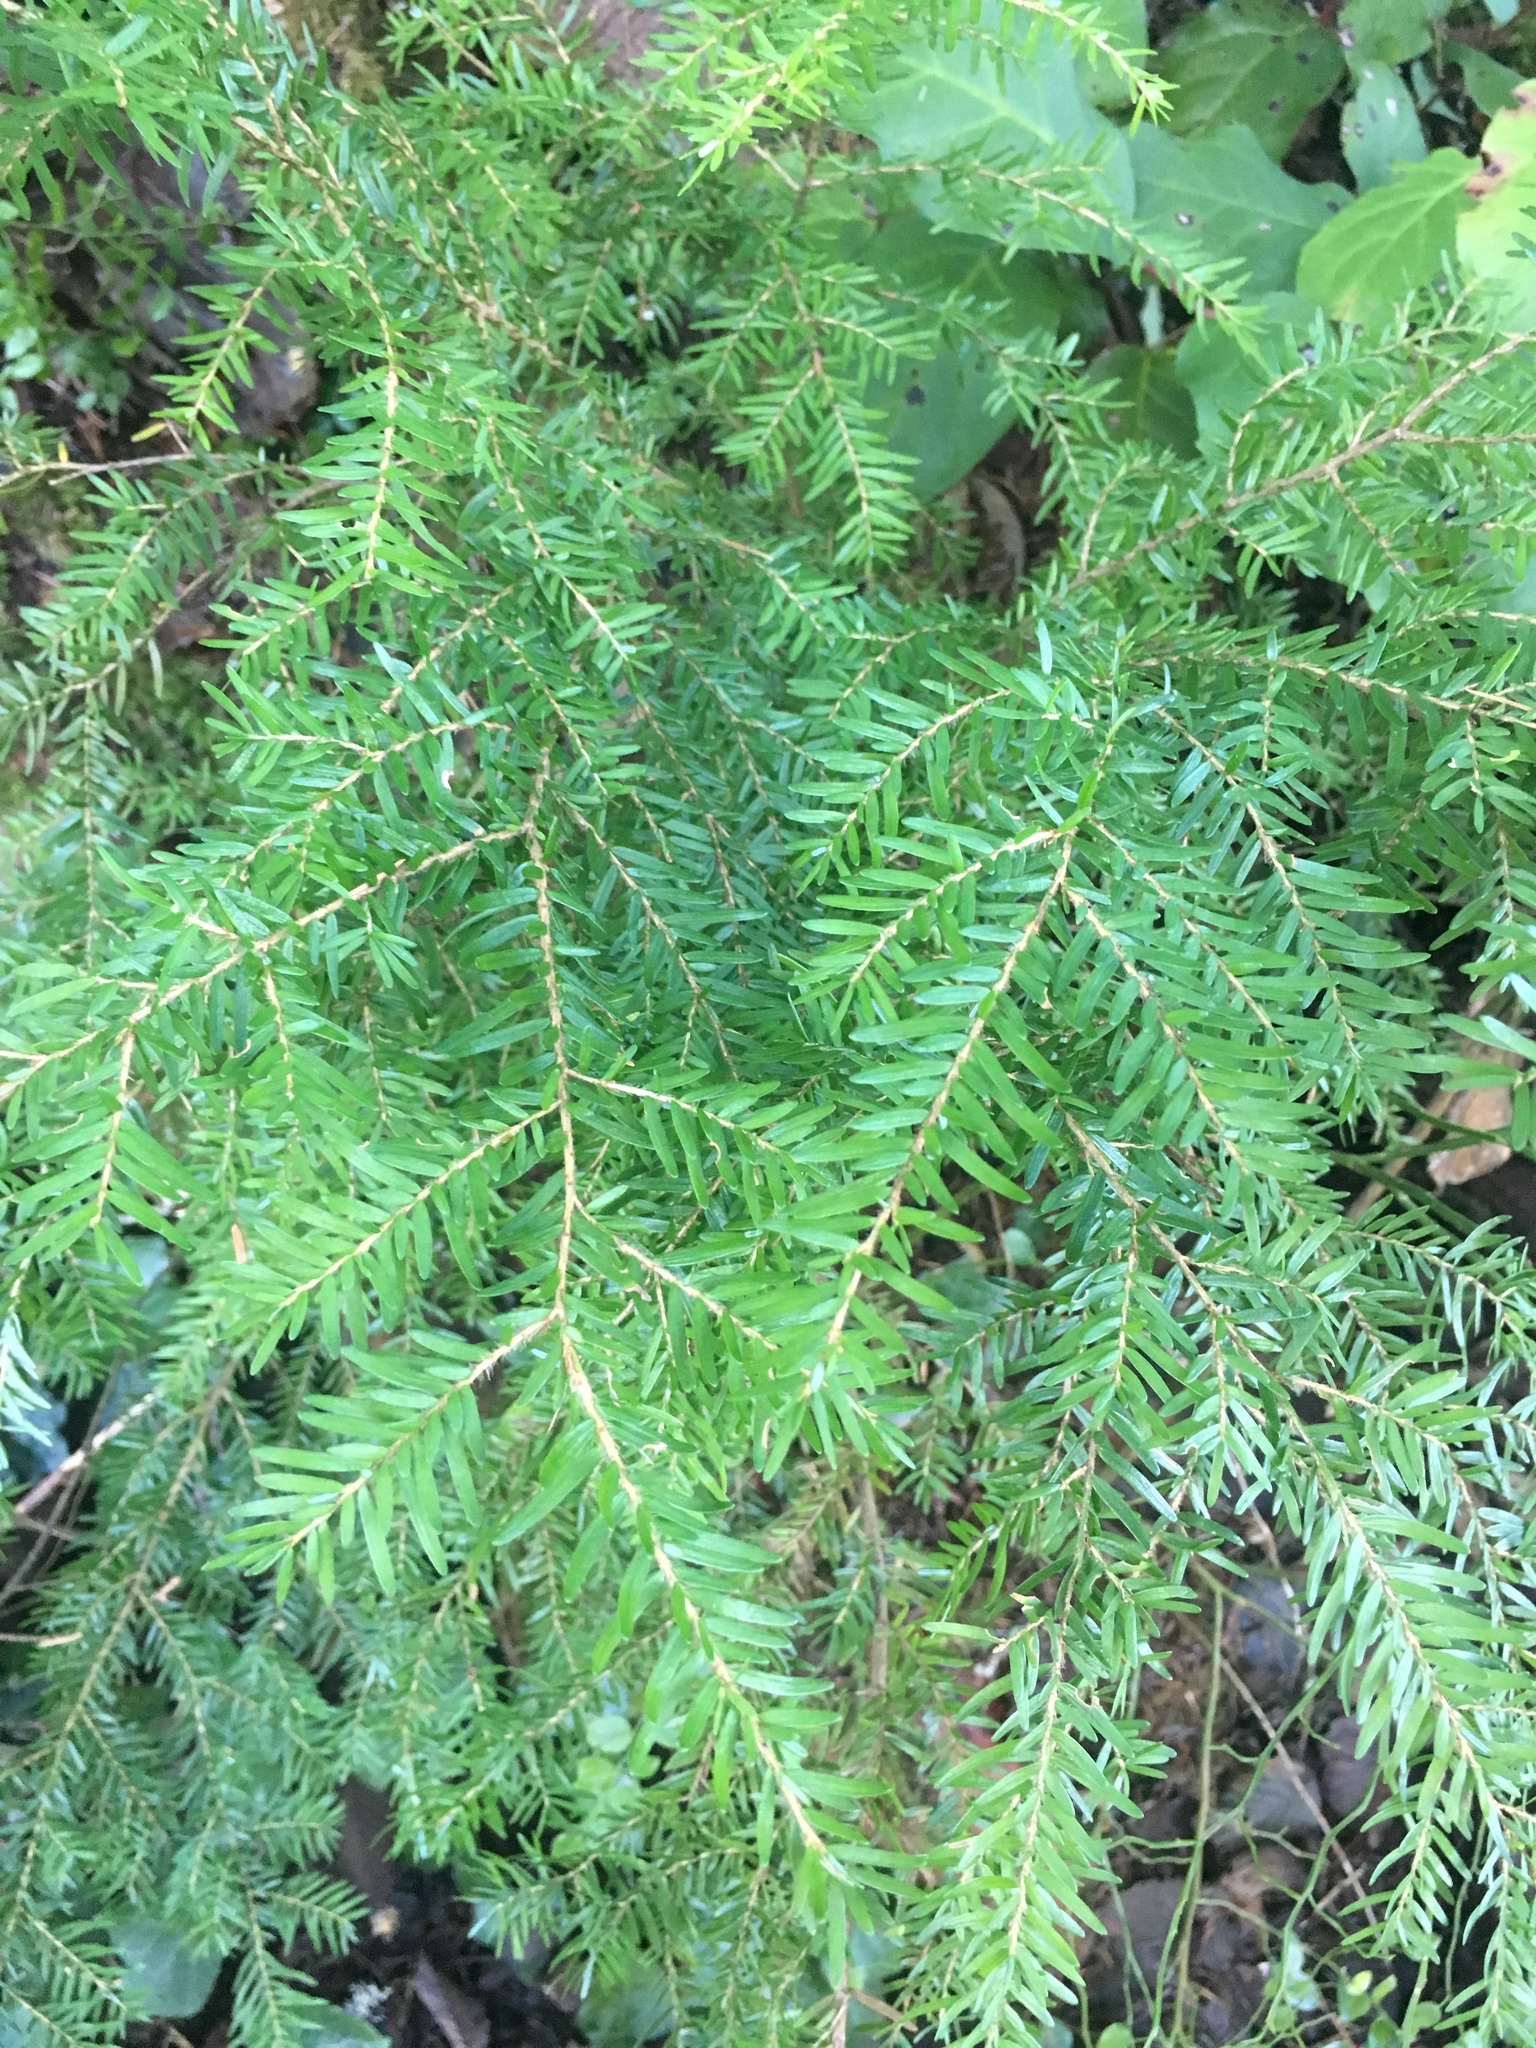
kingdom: Plantae
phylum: Tracheophyta
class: Pinopsida
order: Pinales
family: Pinaceae
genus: Tsuga
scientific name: Tsuga heterophylla
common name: Western hemlock
